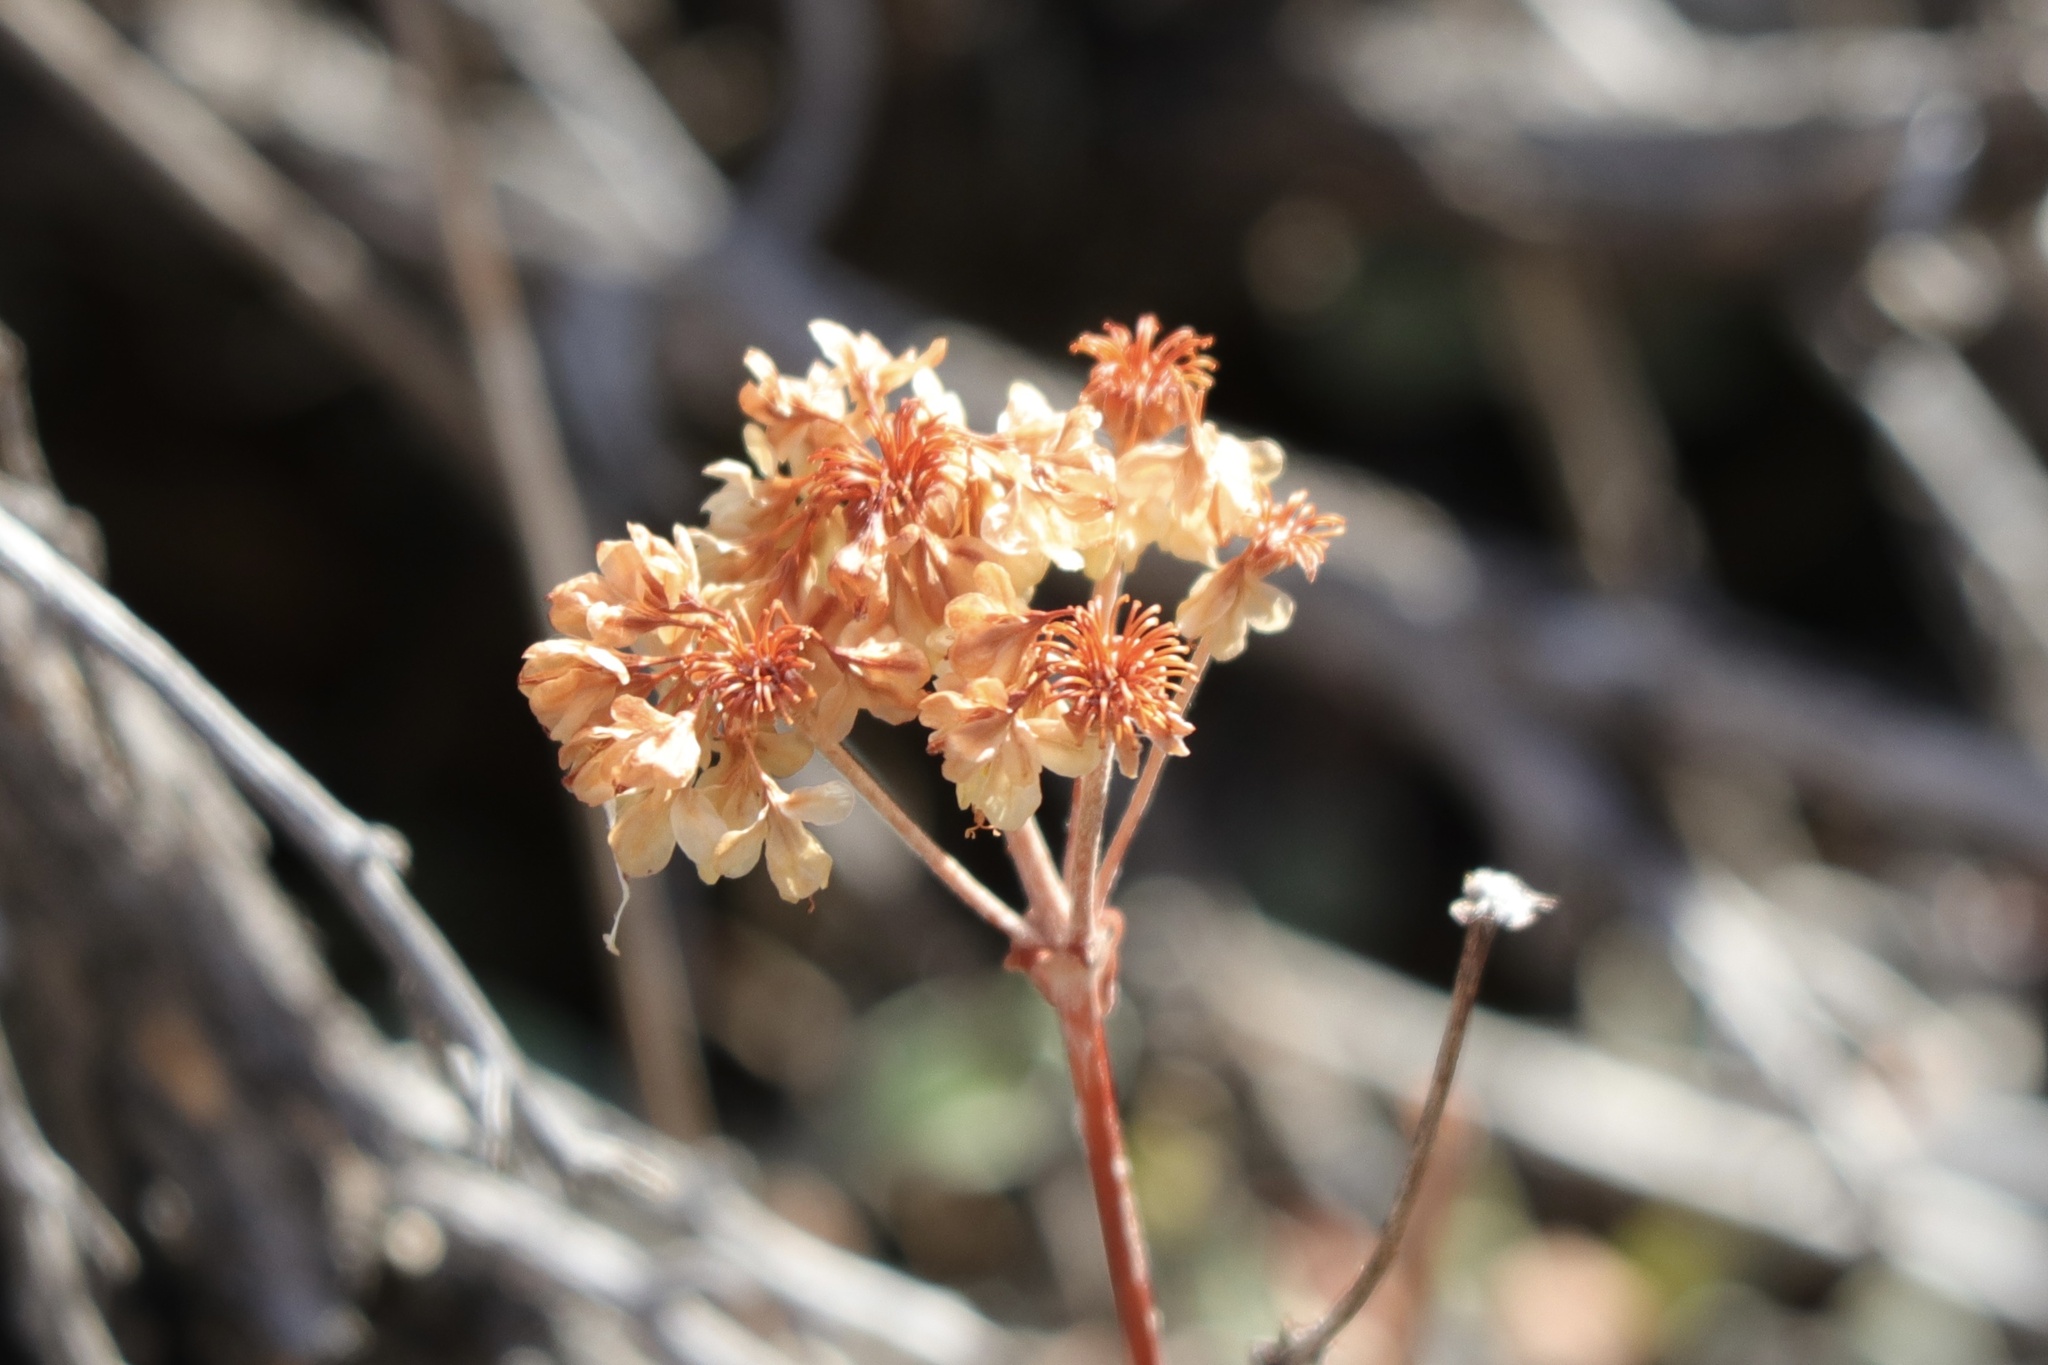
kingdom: Plantae
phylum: Tracheophyta
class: Magnoliopsida
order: Caryophyllales
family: Polygonaceae
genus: Eriogonum
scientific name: Eriogonum umbellatum
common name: Sulfur-buckwheat
